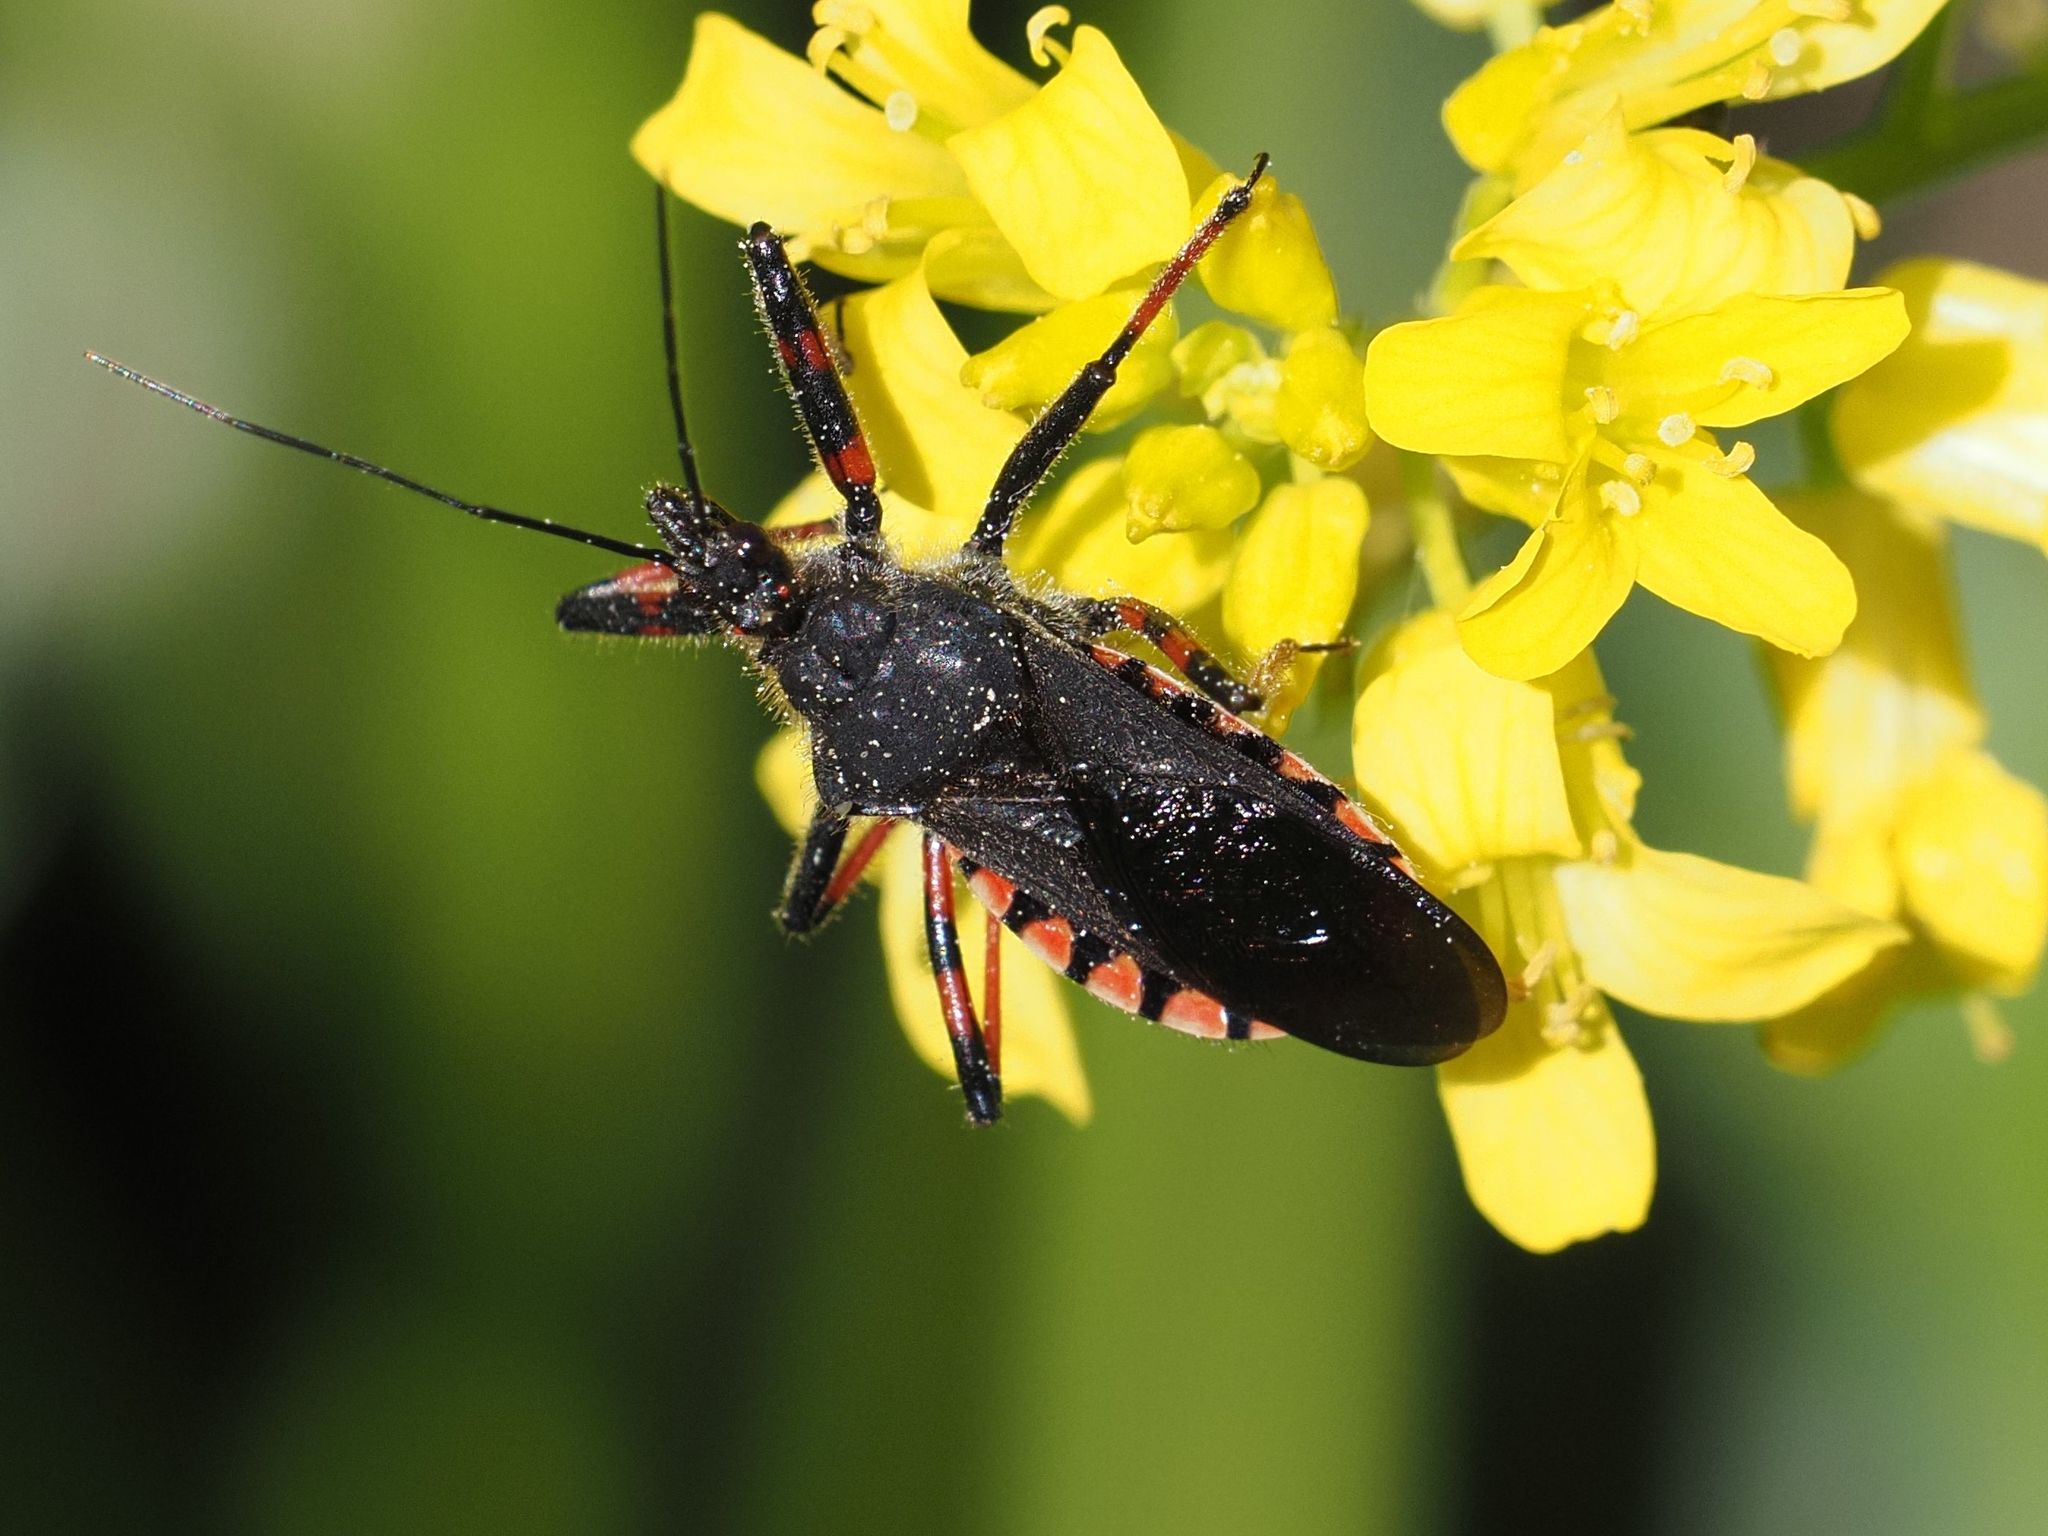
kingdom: Animalia
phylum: Arthropoda
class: Insecta
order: Hemiptera
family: Reduviidae
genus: Rhynocoris
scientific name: Rhynocoris annulatus
